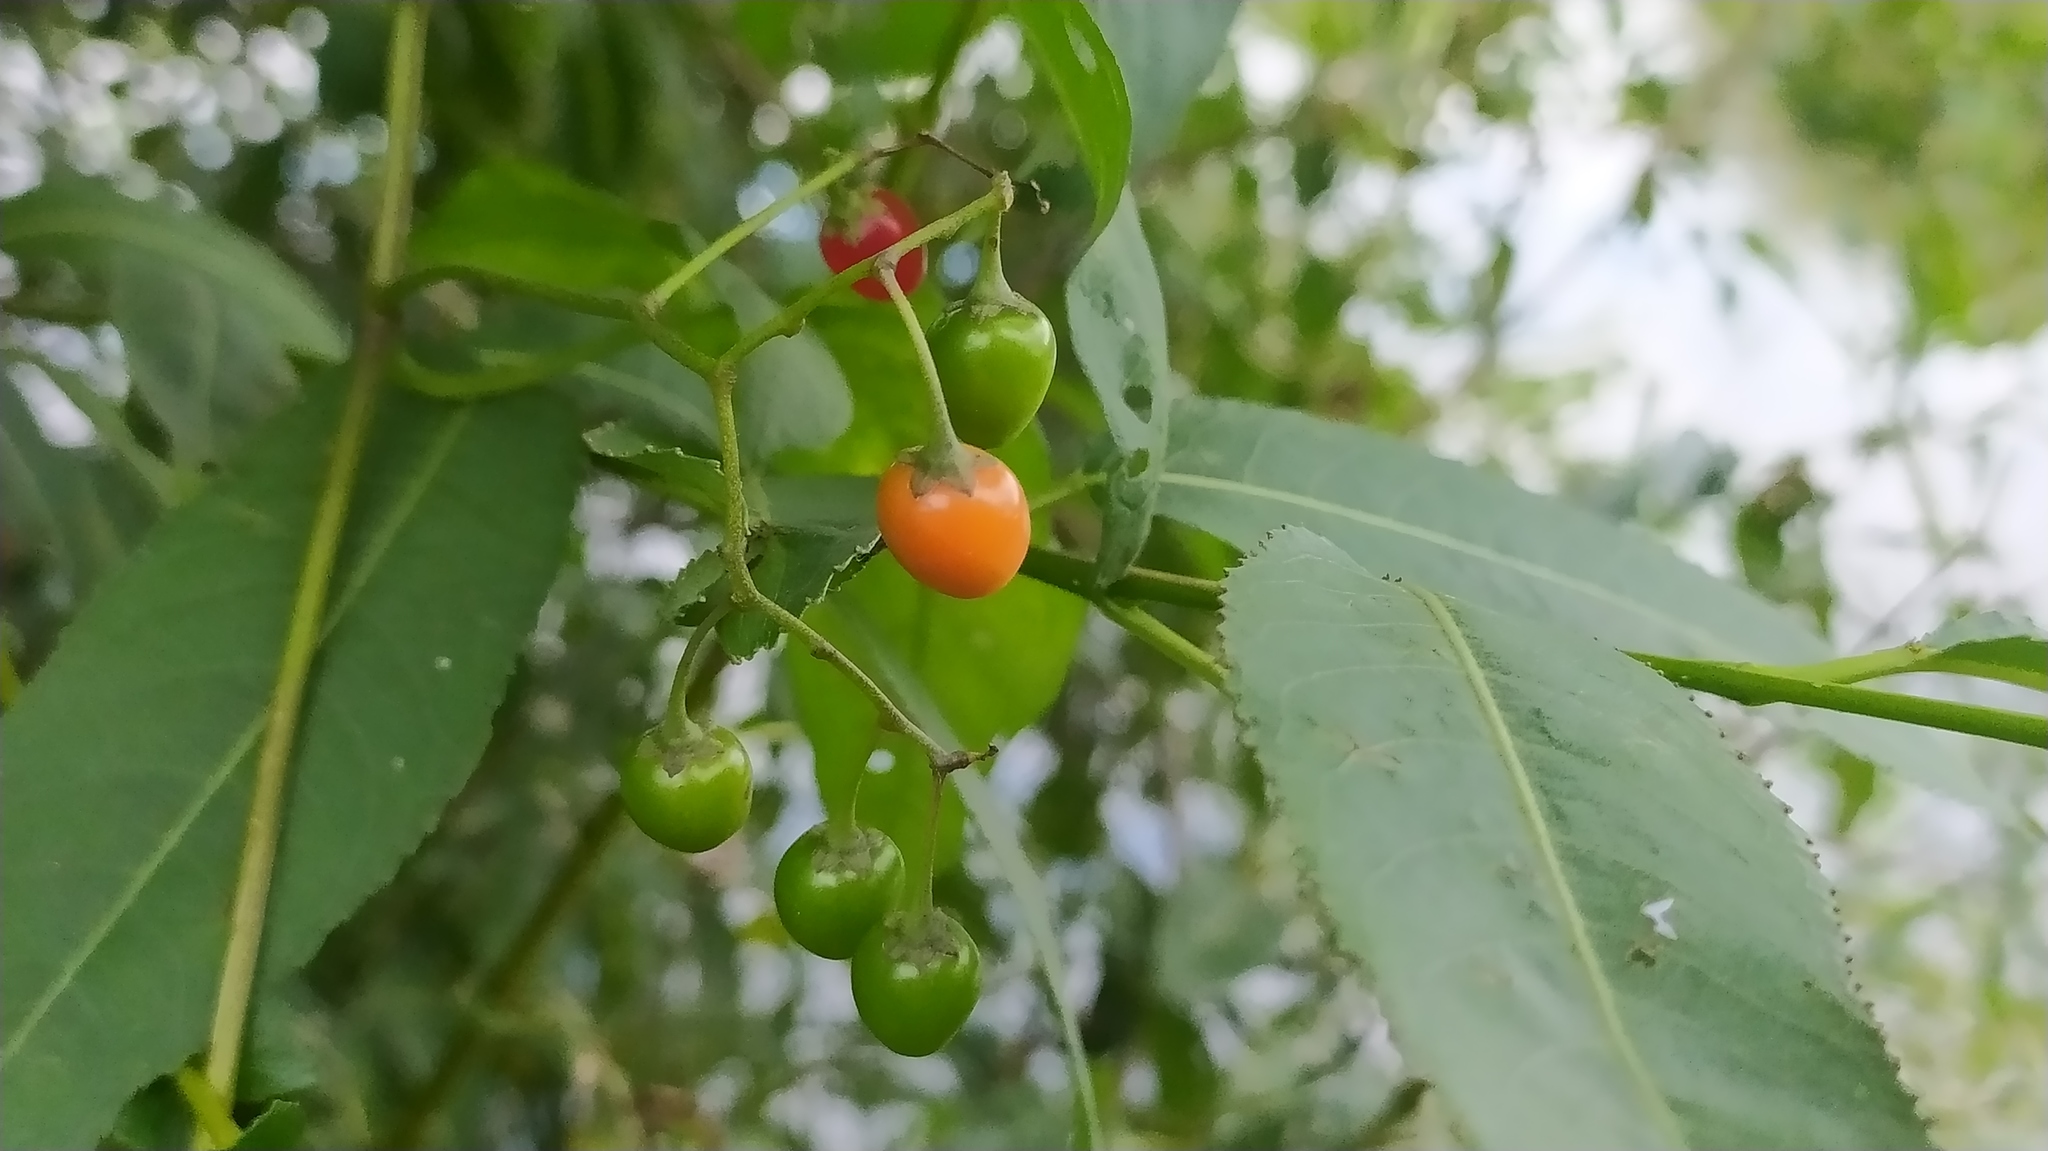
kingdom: Plantae
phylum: Tracheophyta
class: Magnoliopsida
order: Solanales
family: Solanaceae
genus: Solanum
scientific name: Solanum dulcamara
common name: Climbing nightshade
